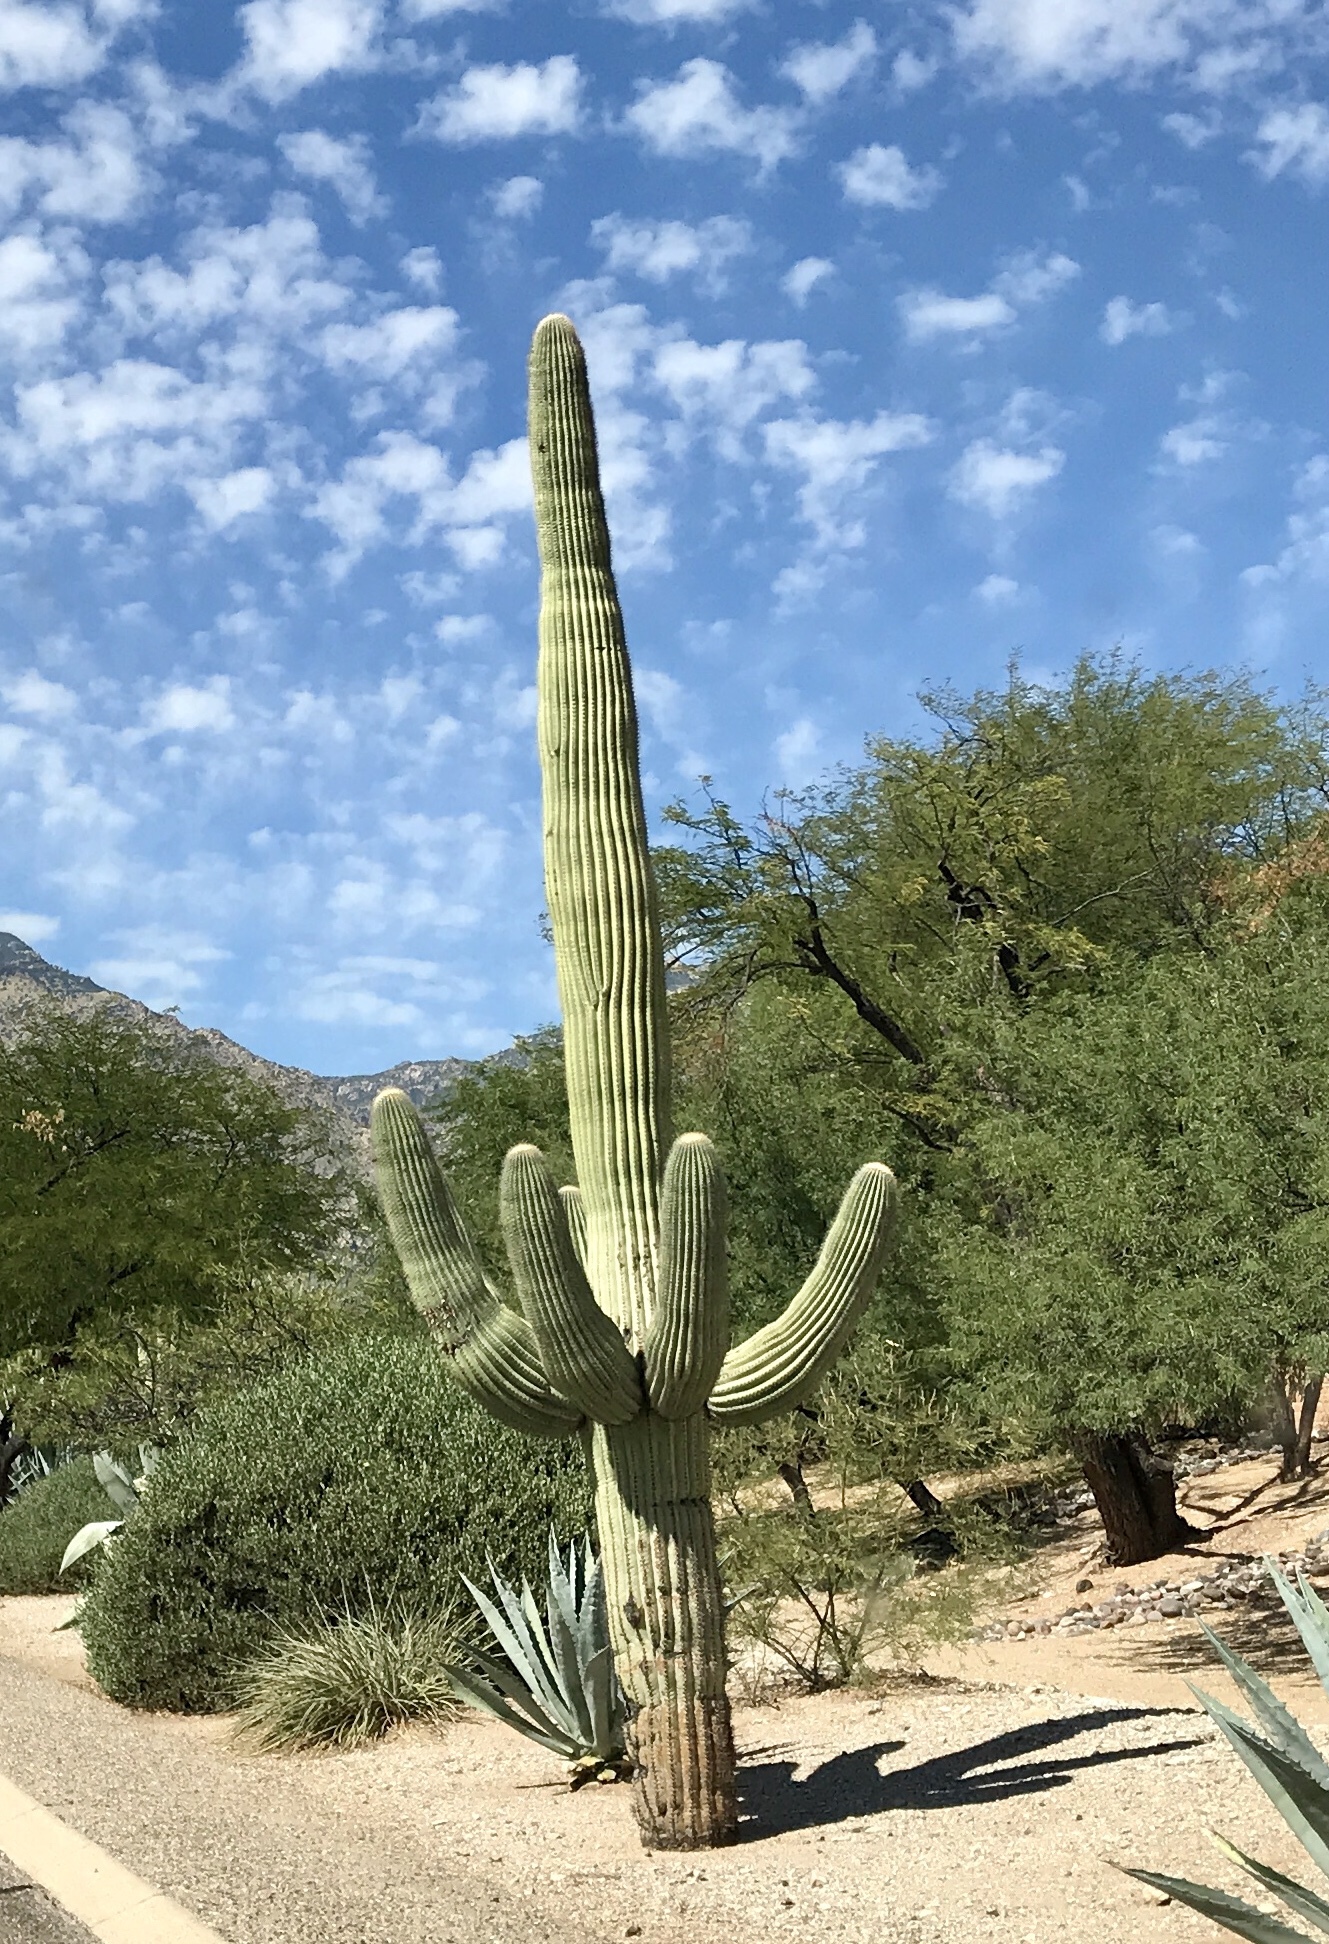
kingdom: Plantae
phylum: Tracheophyta
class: Magnoliopsida
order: Caryophyllales
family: Cactaceae
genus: Carnegiea
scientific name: Carnegiea gigantea
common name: Saguaro
